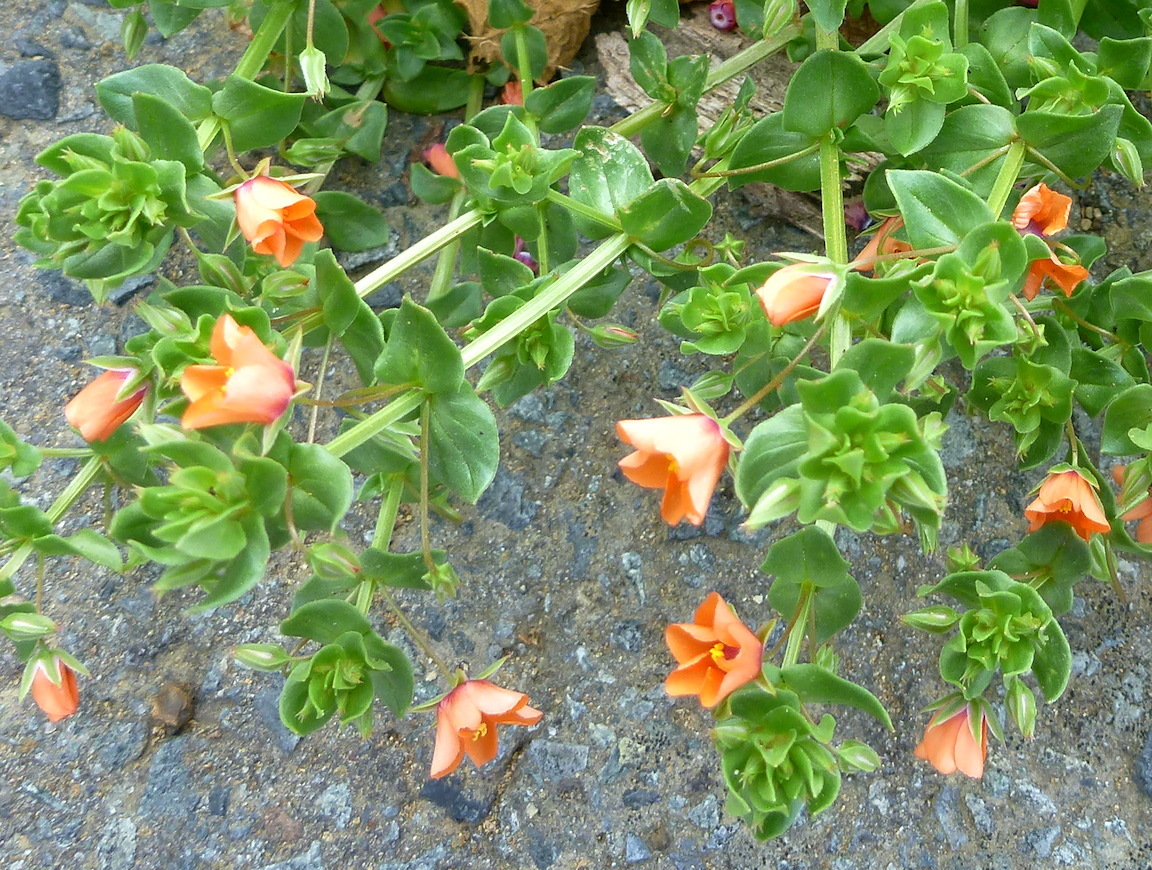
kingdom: Plantae
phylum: Tracheophyta
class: Magnoliopsida
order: Ericales
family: Primulaceae
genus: Lysimachia
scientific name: Lysimachia arvensis
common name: Scarlet pimpernel
